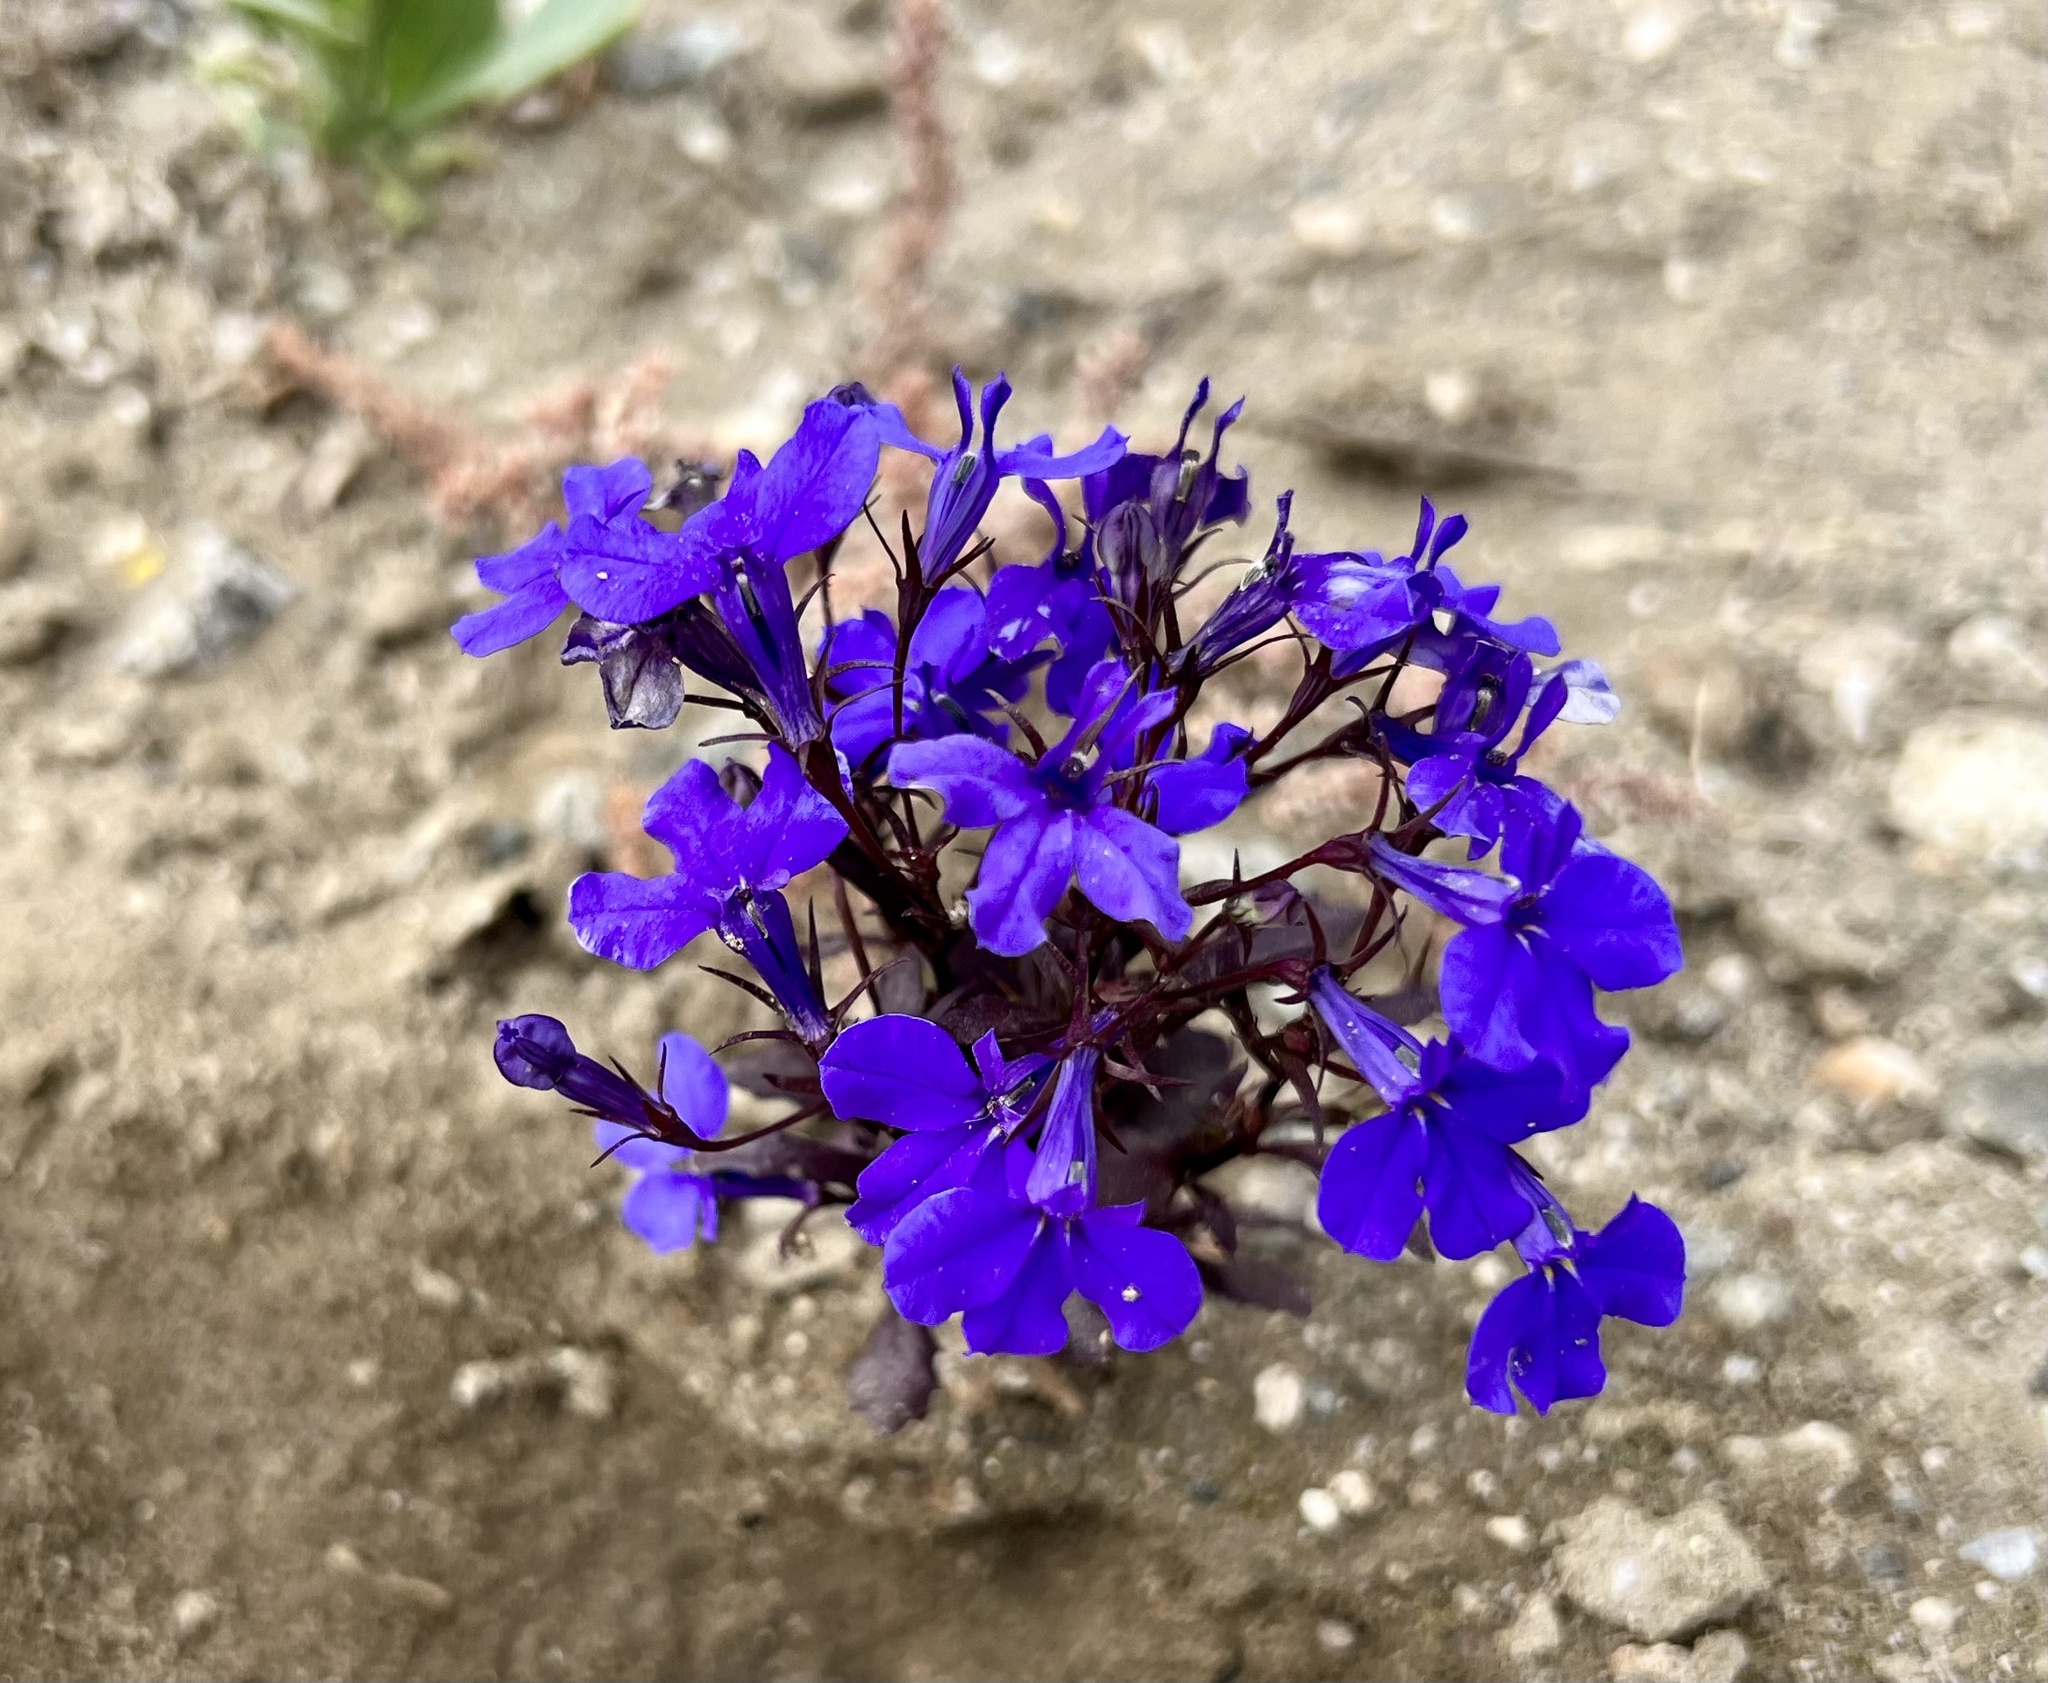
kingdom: Plantae
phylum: Tracheophyta
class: Magnoliopsida
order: Asterales
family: Campanulaceae
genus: Lobelia
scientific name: Lobelia erinus
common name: Edging lobelia
